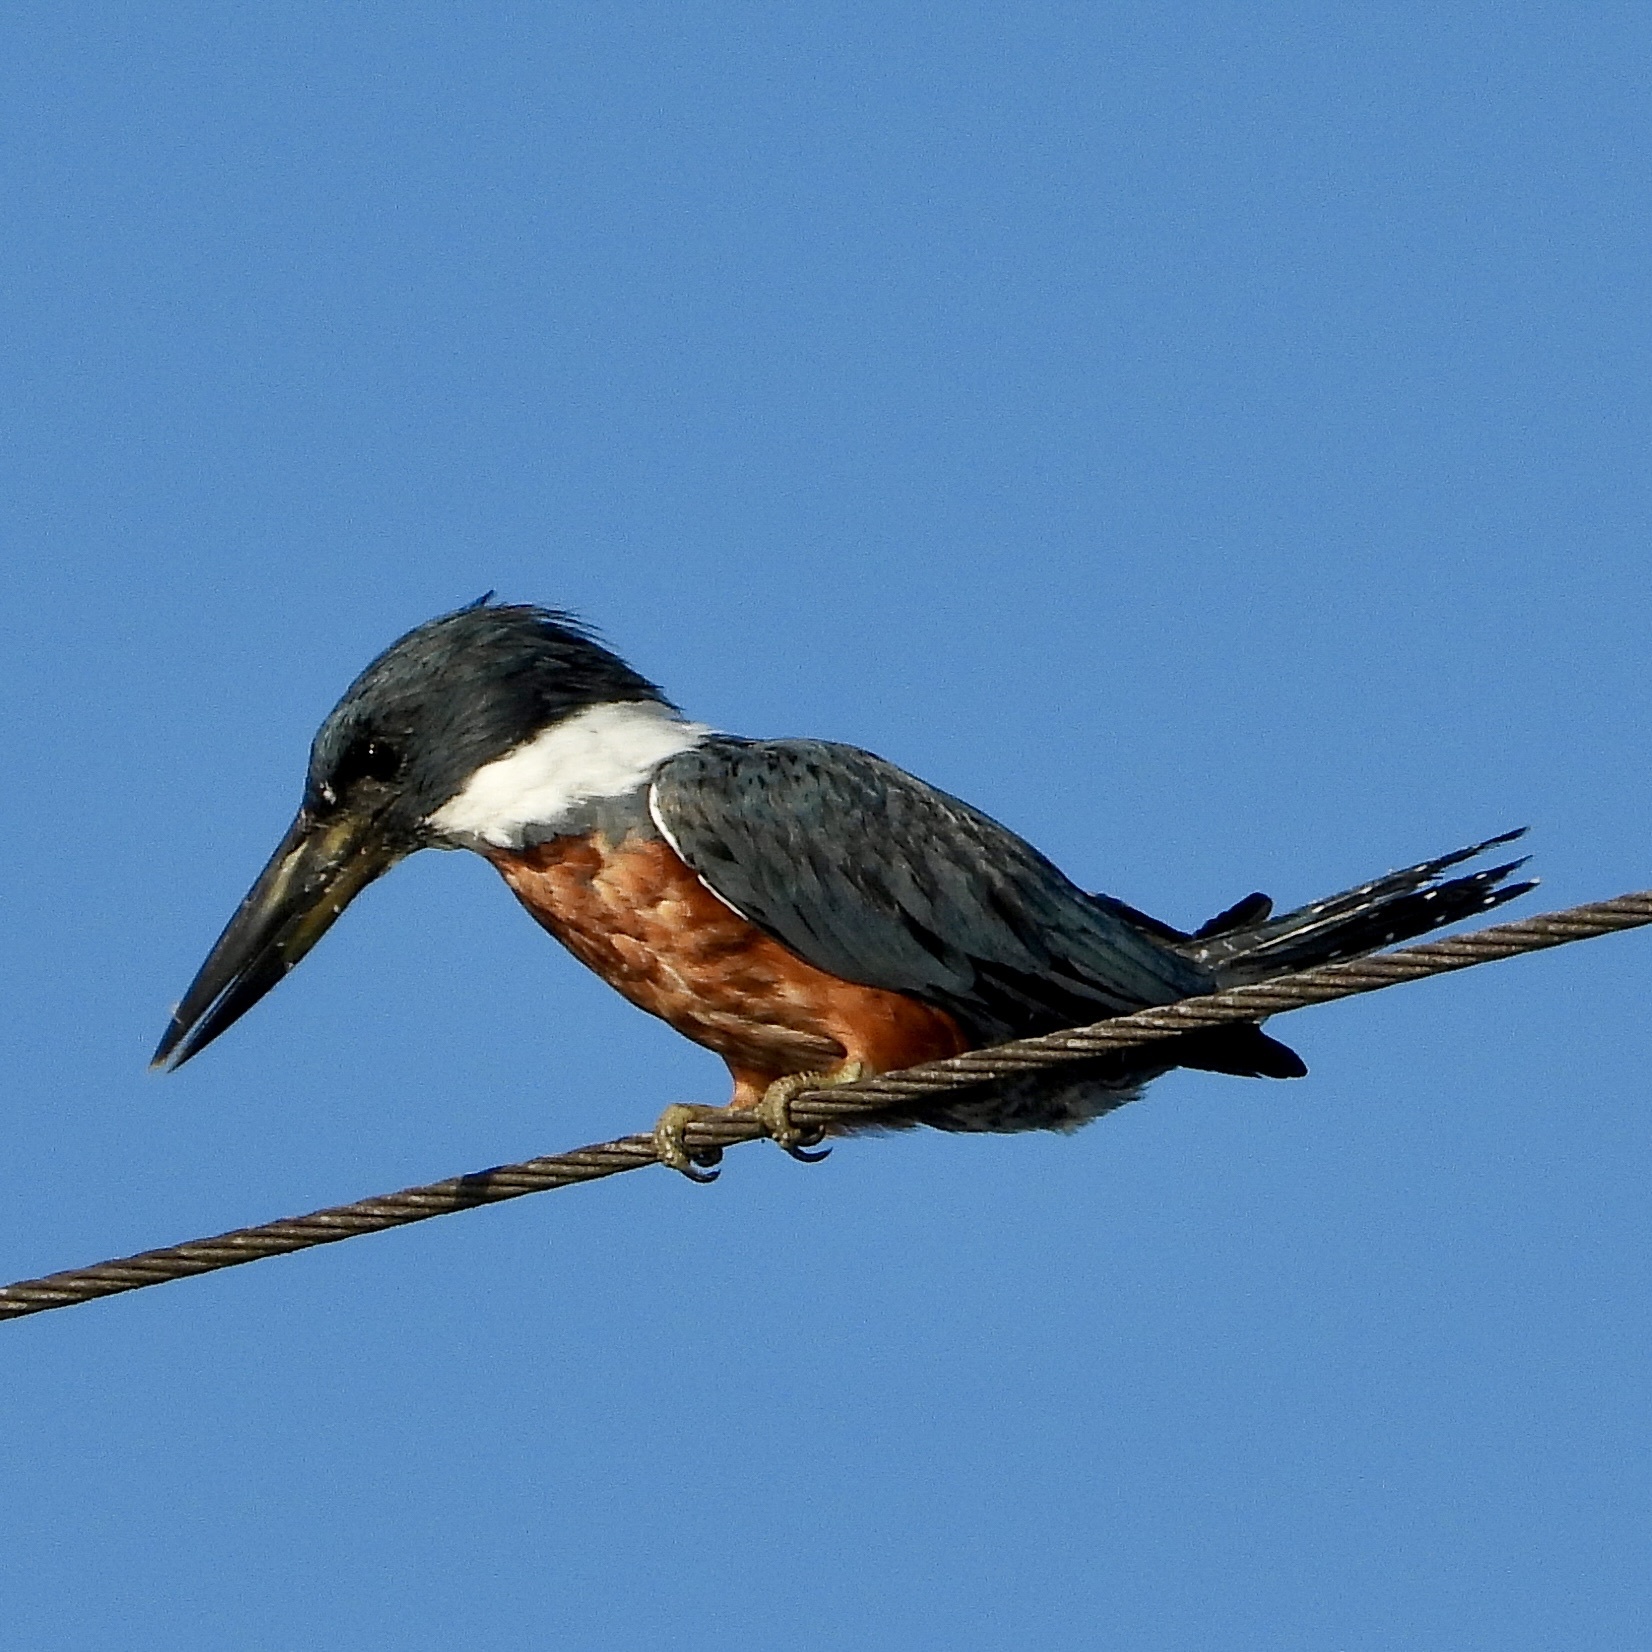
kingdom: Animalia
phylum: Chordata
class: Aves
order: Coraciiformes
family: Alcedinidae
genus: Megaceryle
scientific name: Megaceryle torquata
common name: Ringed kingfisher
